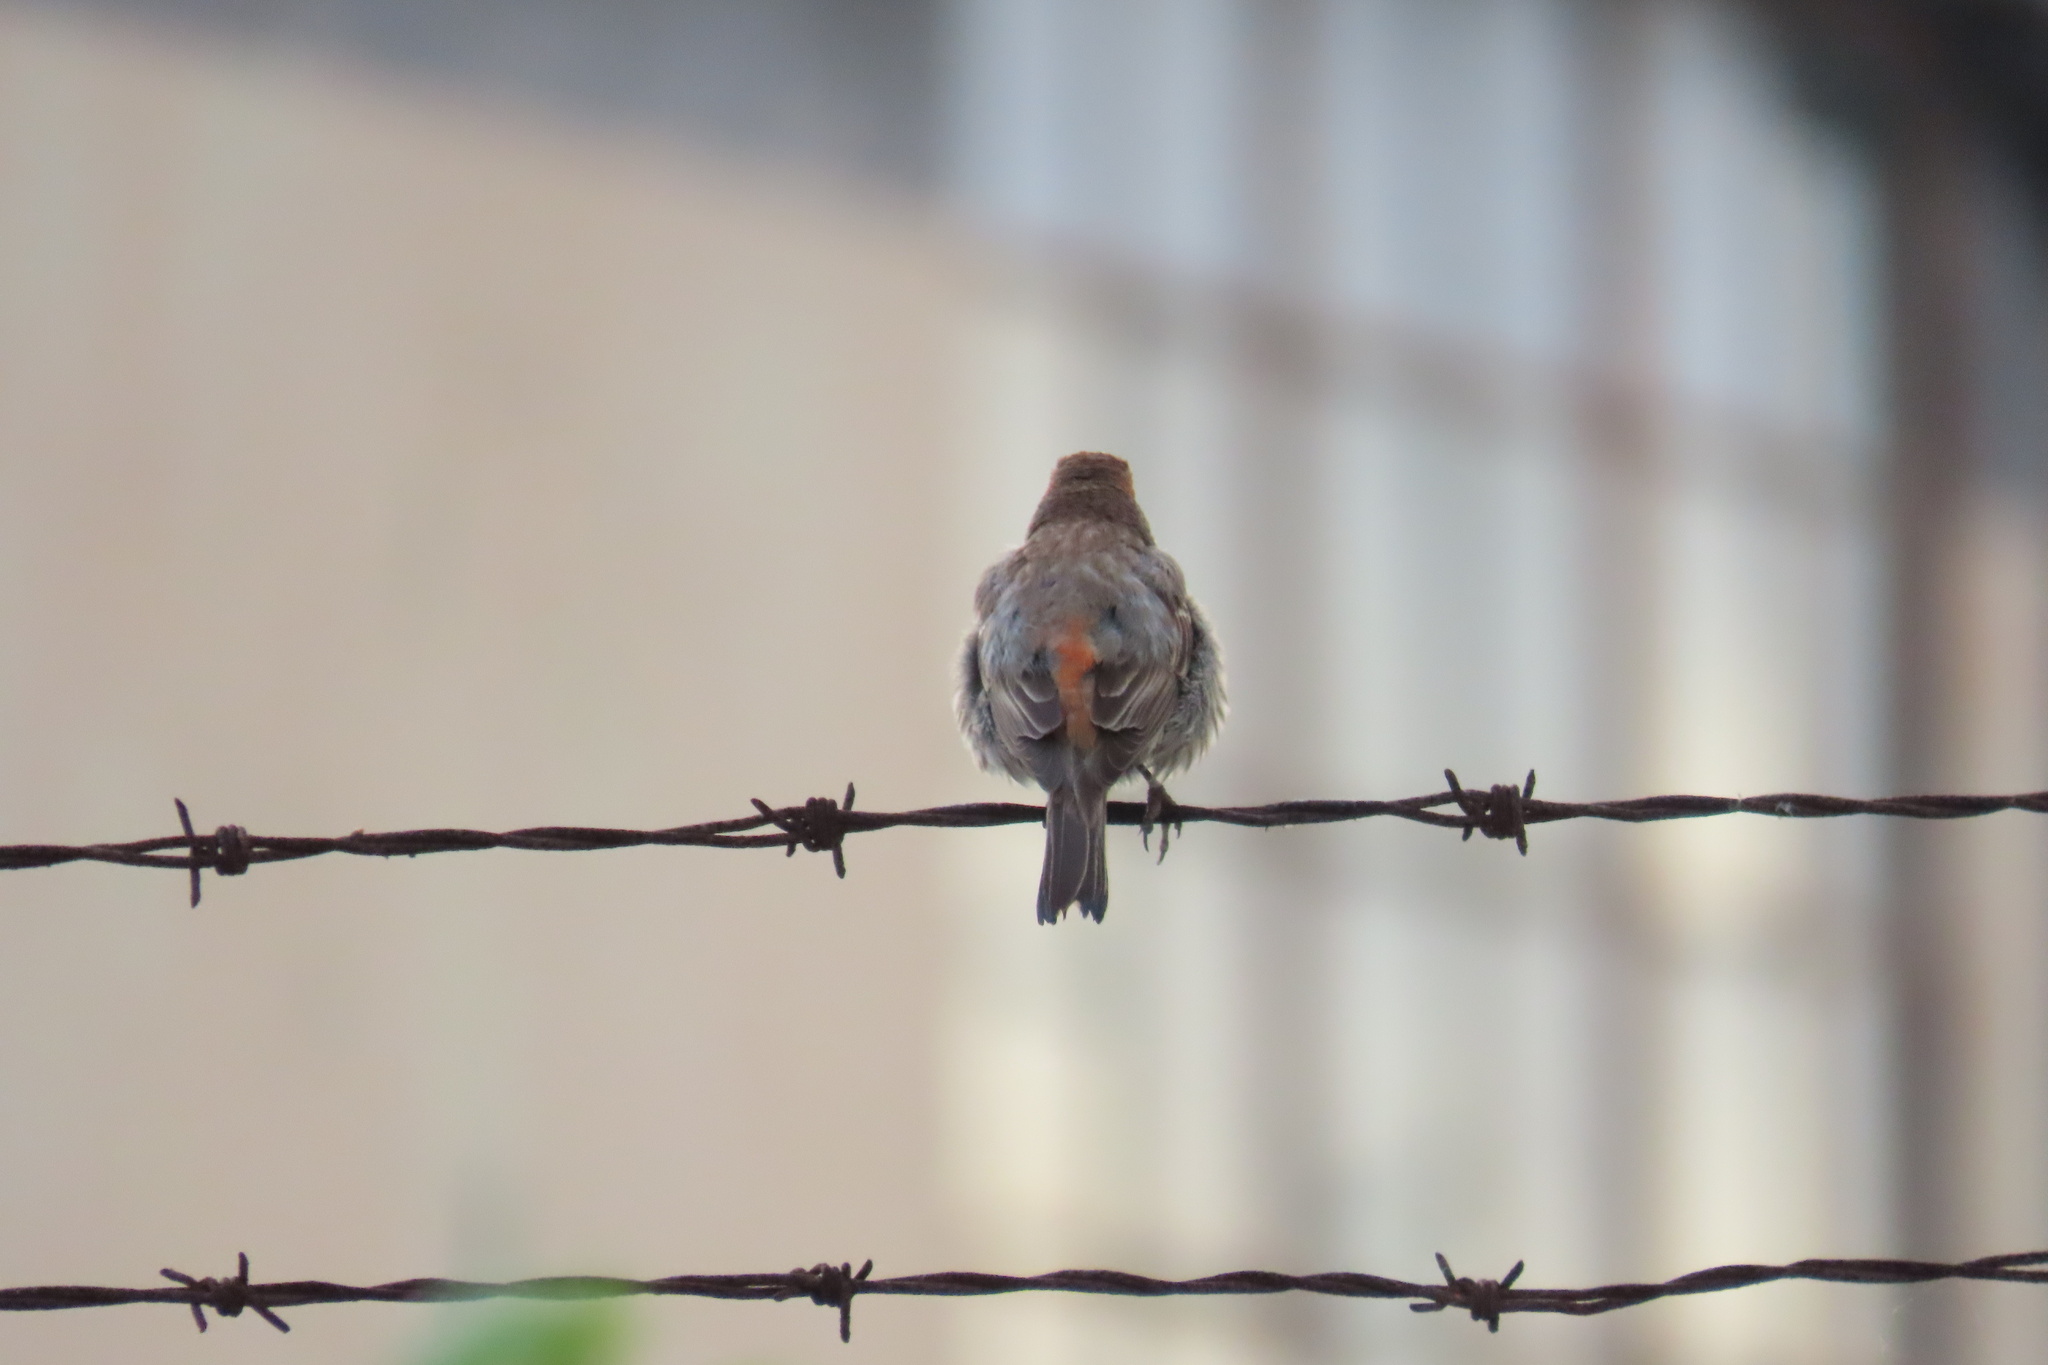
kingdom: Animalia
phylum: Chordata
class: Aves
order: Passeriformes
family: Fringillidae
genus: Haemorhous
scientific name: Haemorhous mexicanus
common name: House finch
